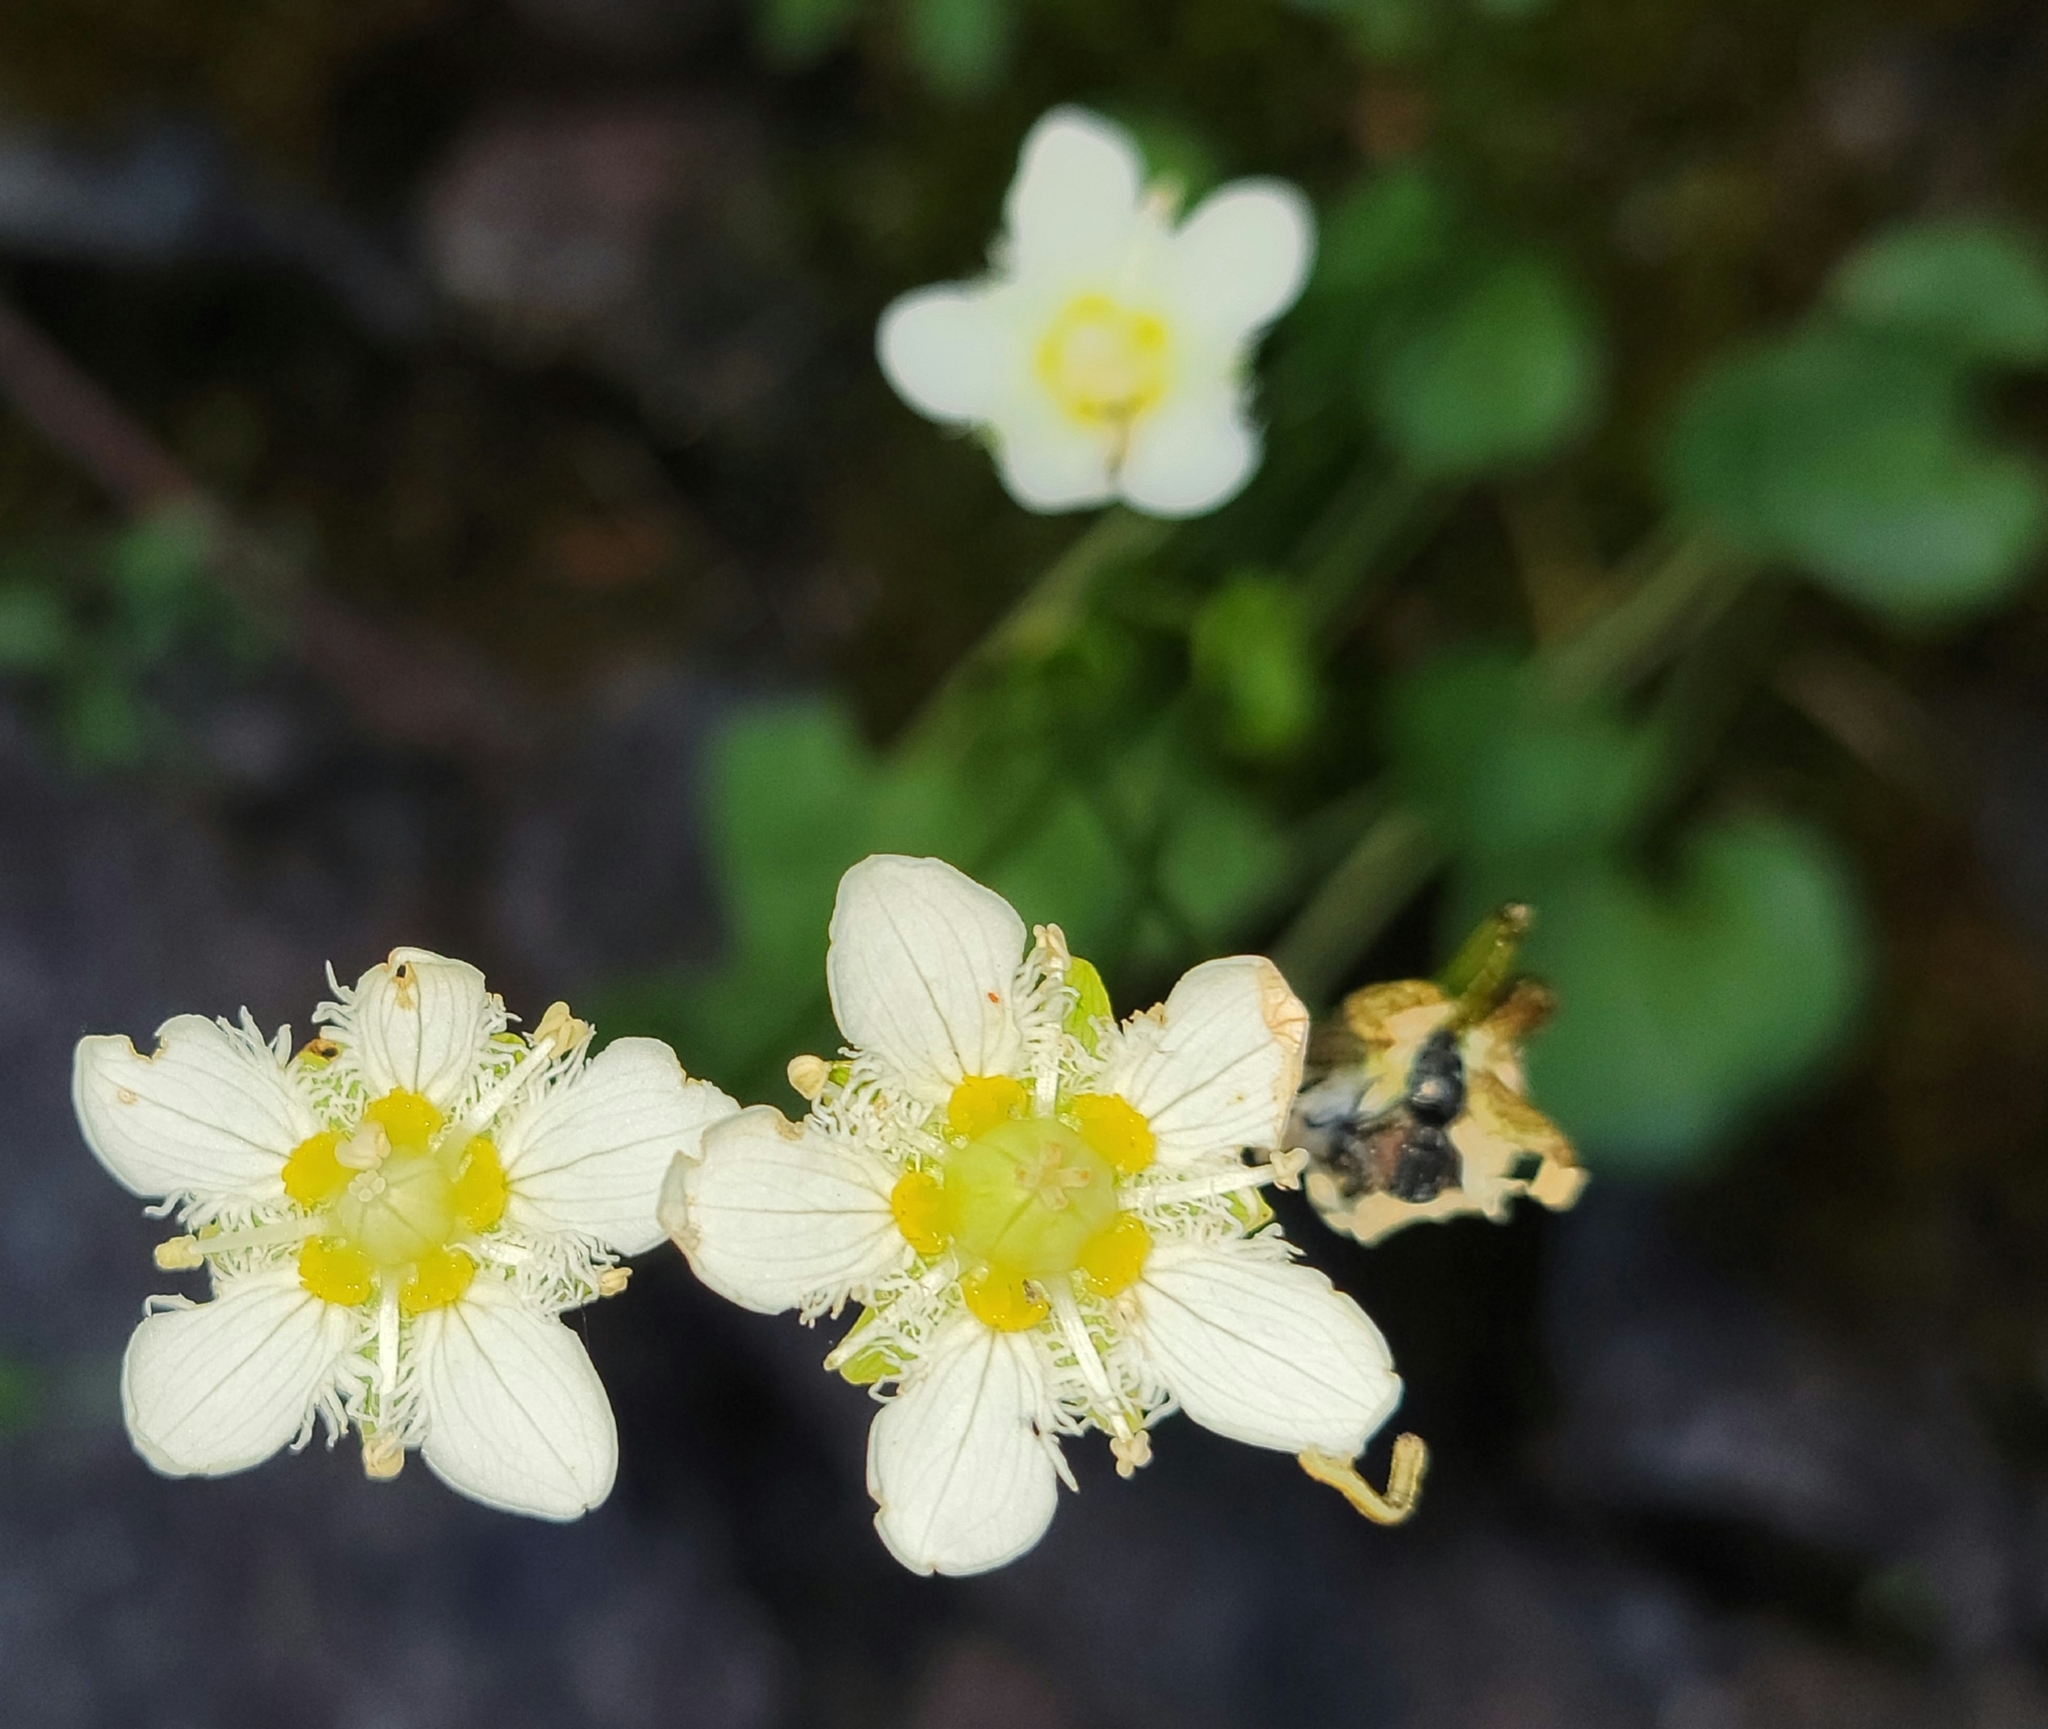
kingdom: Plantae
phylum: Tracheophyta
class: Magnoliopsida
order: Celastrales
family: Parnassiaceae
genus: Parnassia
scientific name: Parnassia fimbriata
